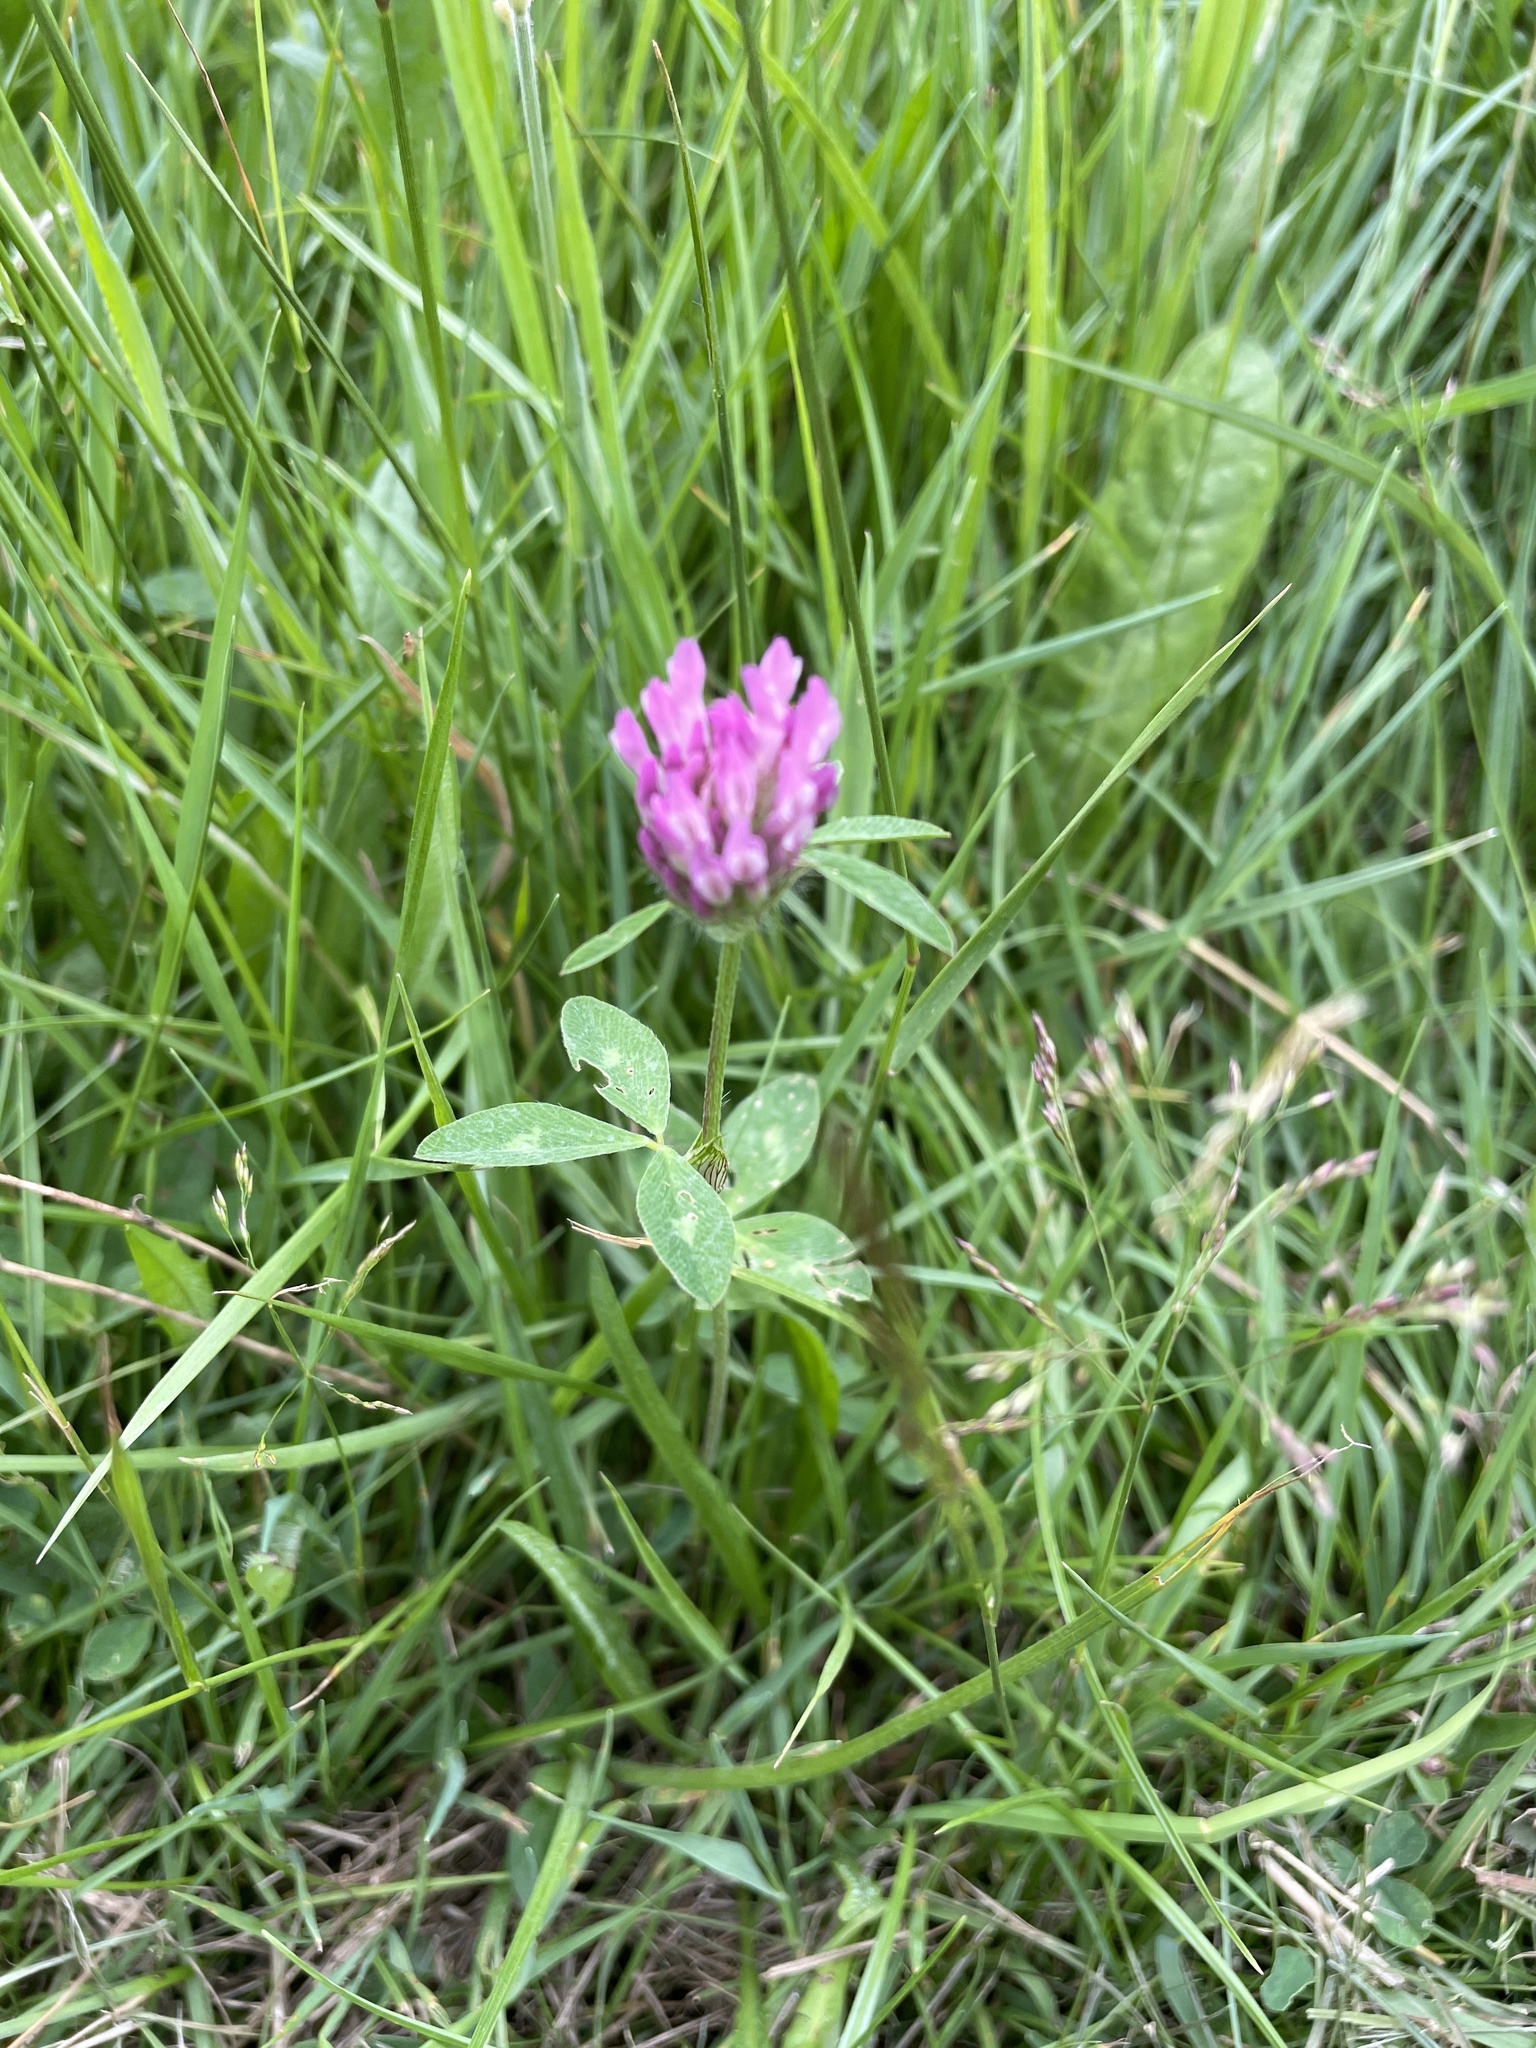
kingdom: Plantae
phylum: Tracheophyta
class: Magnoliopsida
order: Fabales
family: Fabaceae
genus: Trifolium
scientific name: Trifolium pratense
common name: Red clover
